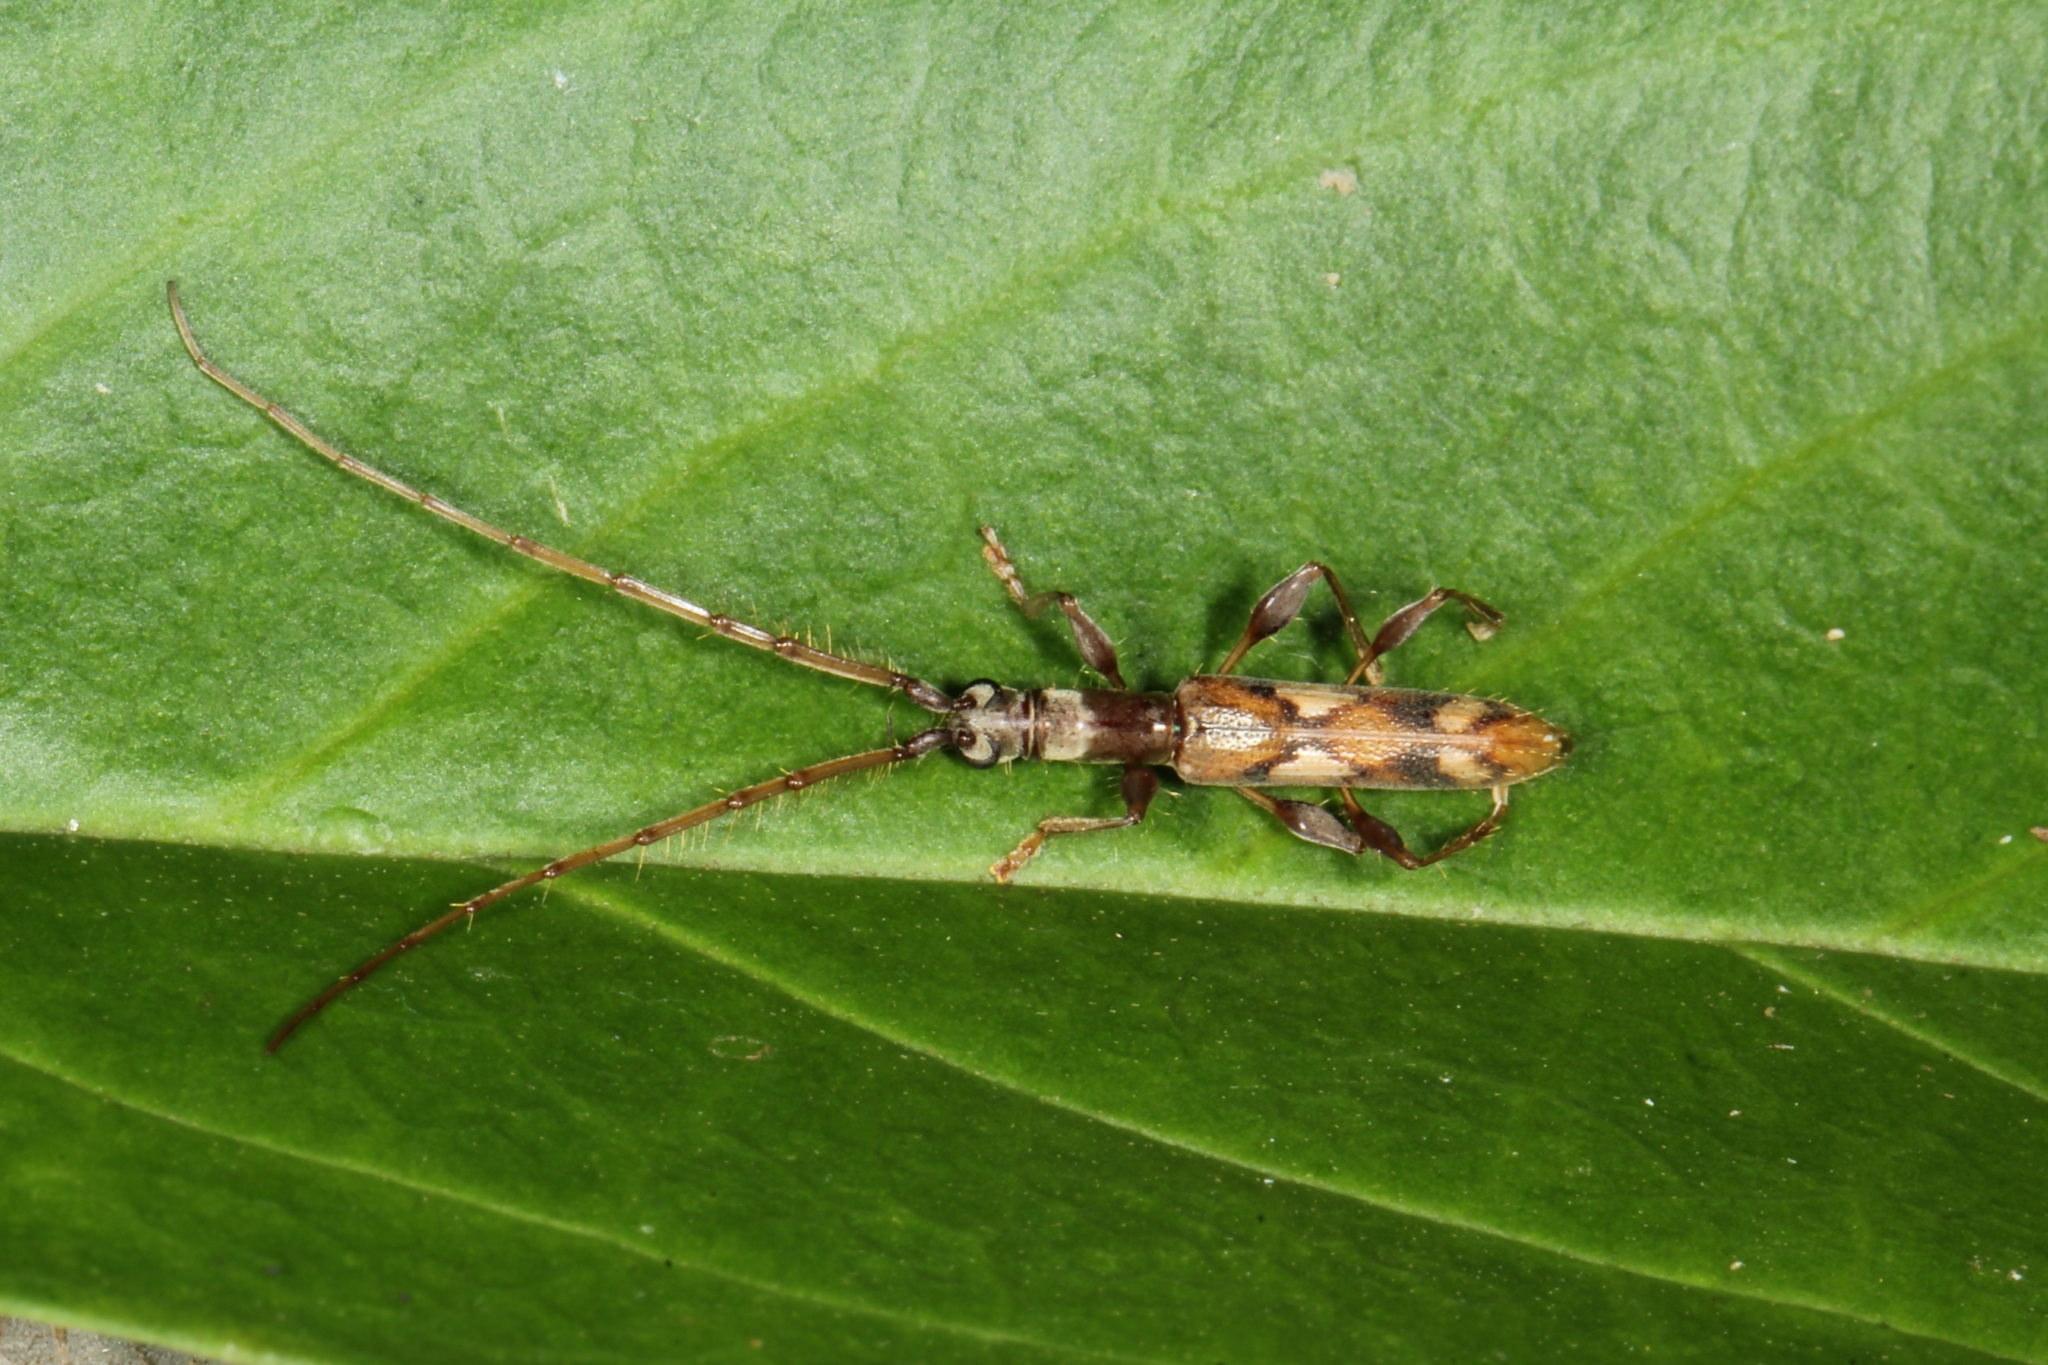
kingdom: Animalia
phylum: Arthropoda
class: Insecta
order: Coleoptera
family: Cerambycidae
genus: Neocompsa
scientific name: Neocompsa textilis
